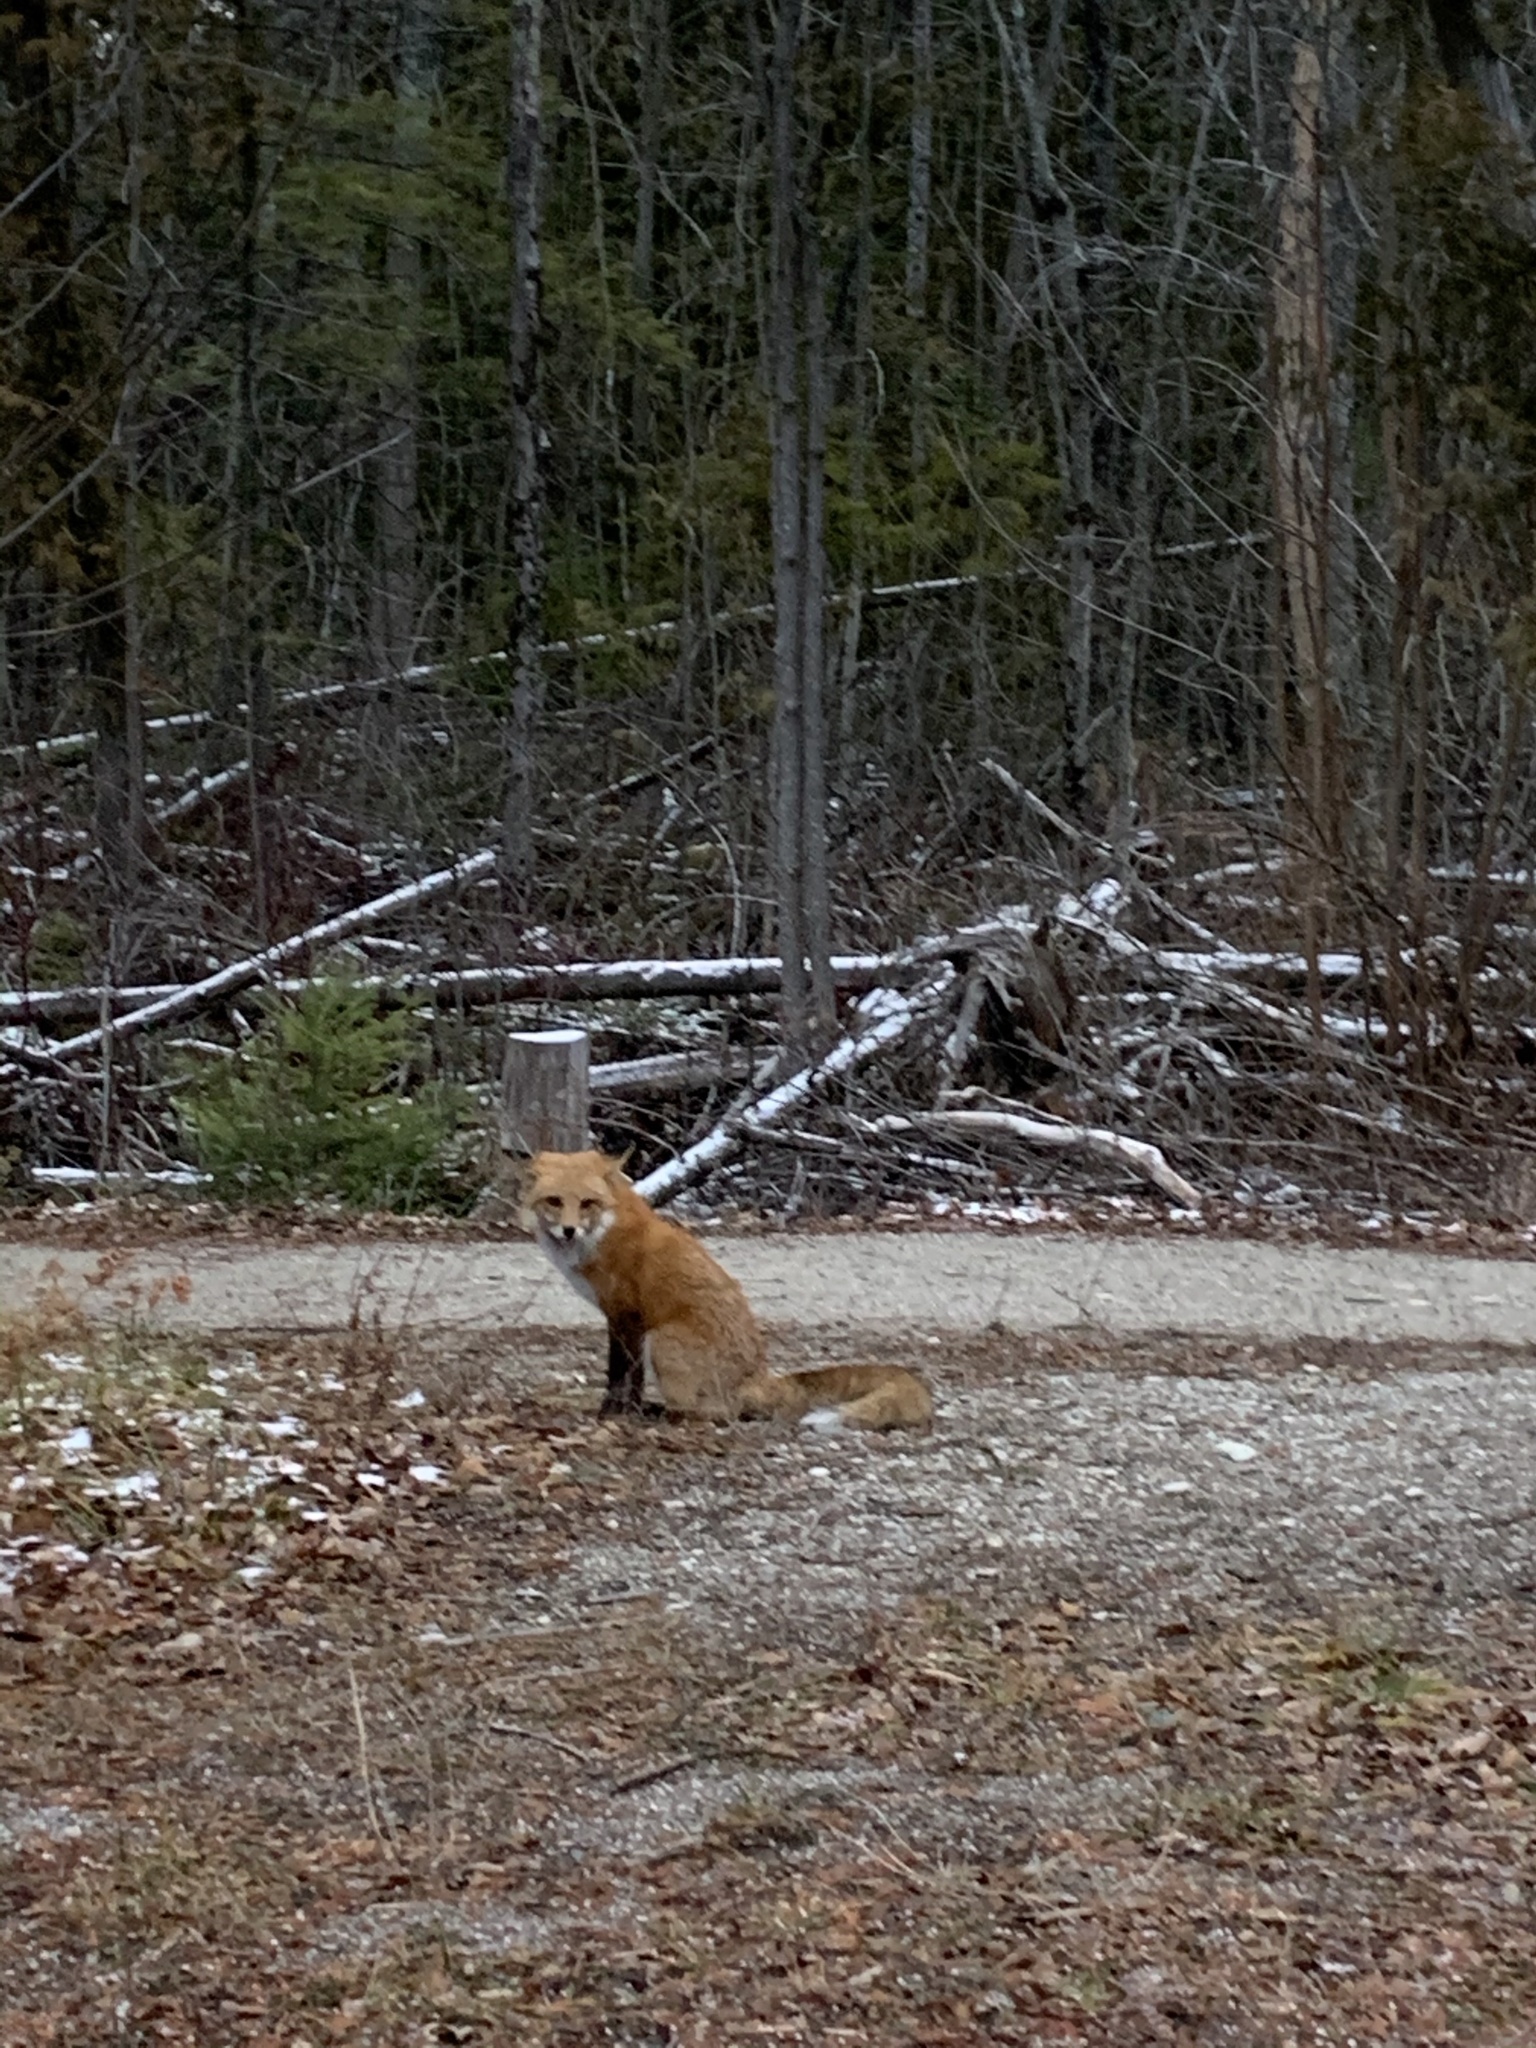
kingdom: Animalia
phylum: Chordata
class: Mammalia
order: Carnivora
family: Canidae
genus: Vulpes
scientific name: Vulpes vulpes
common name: Red fox
